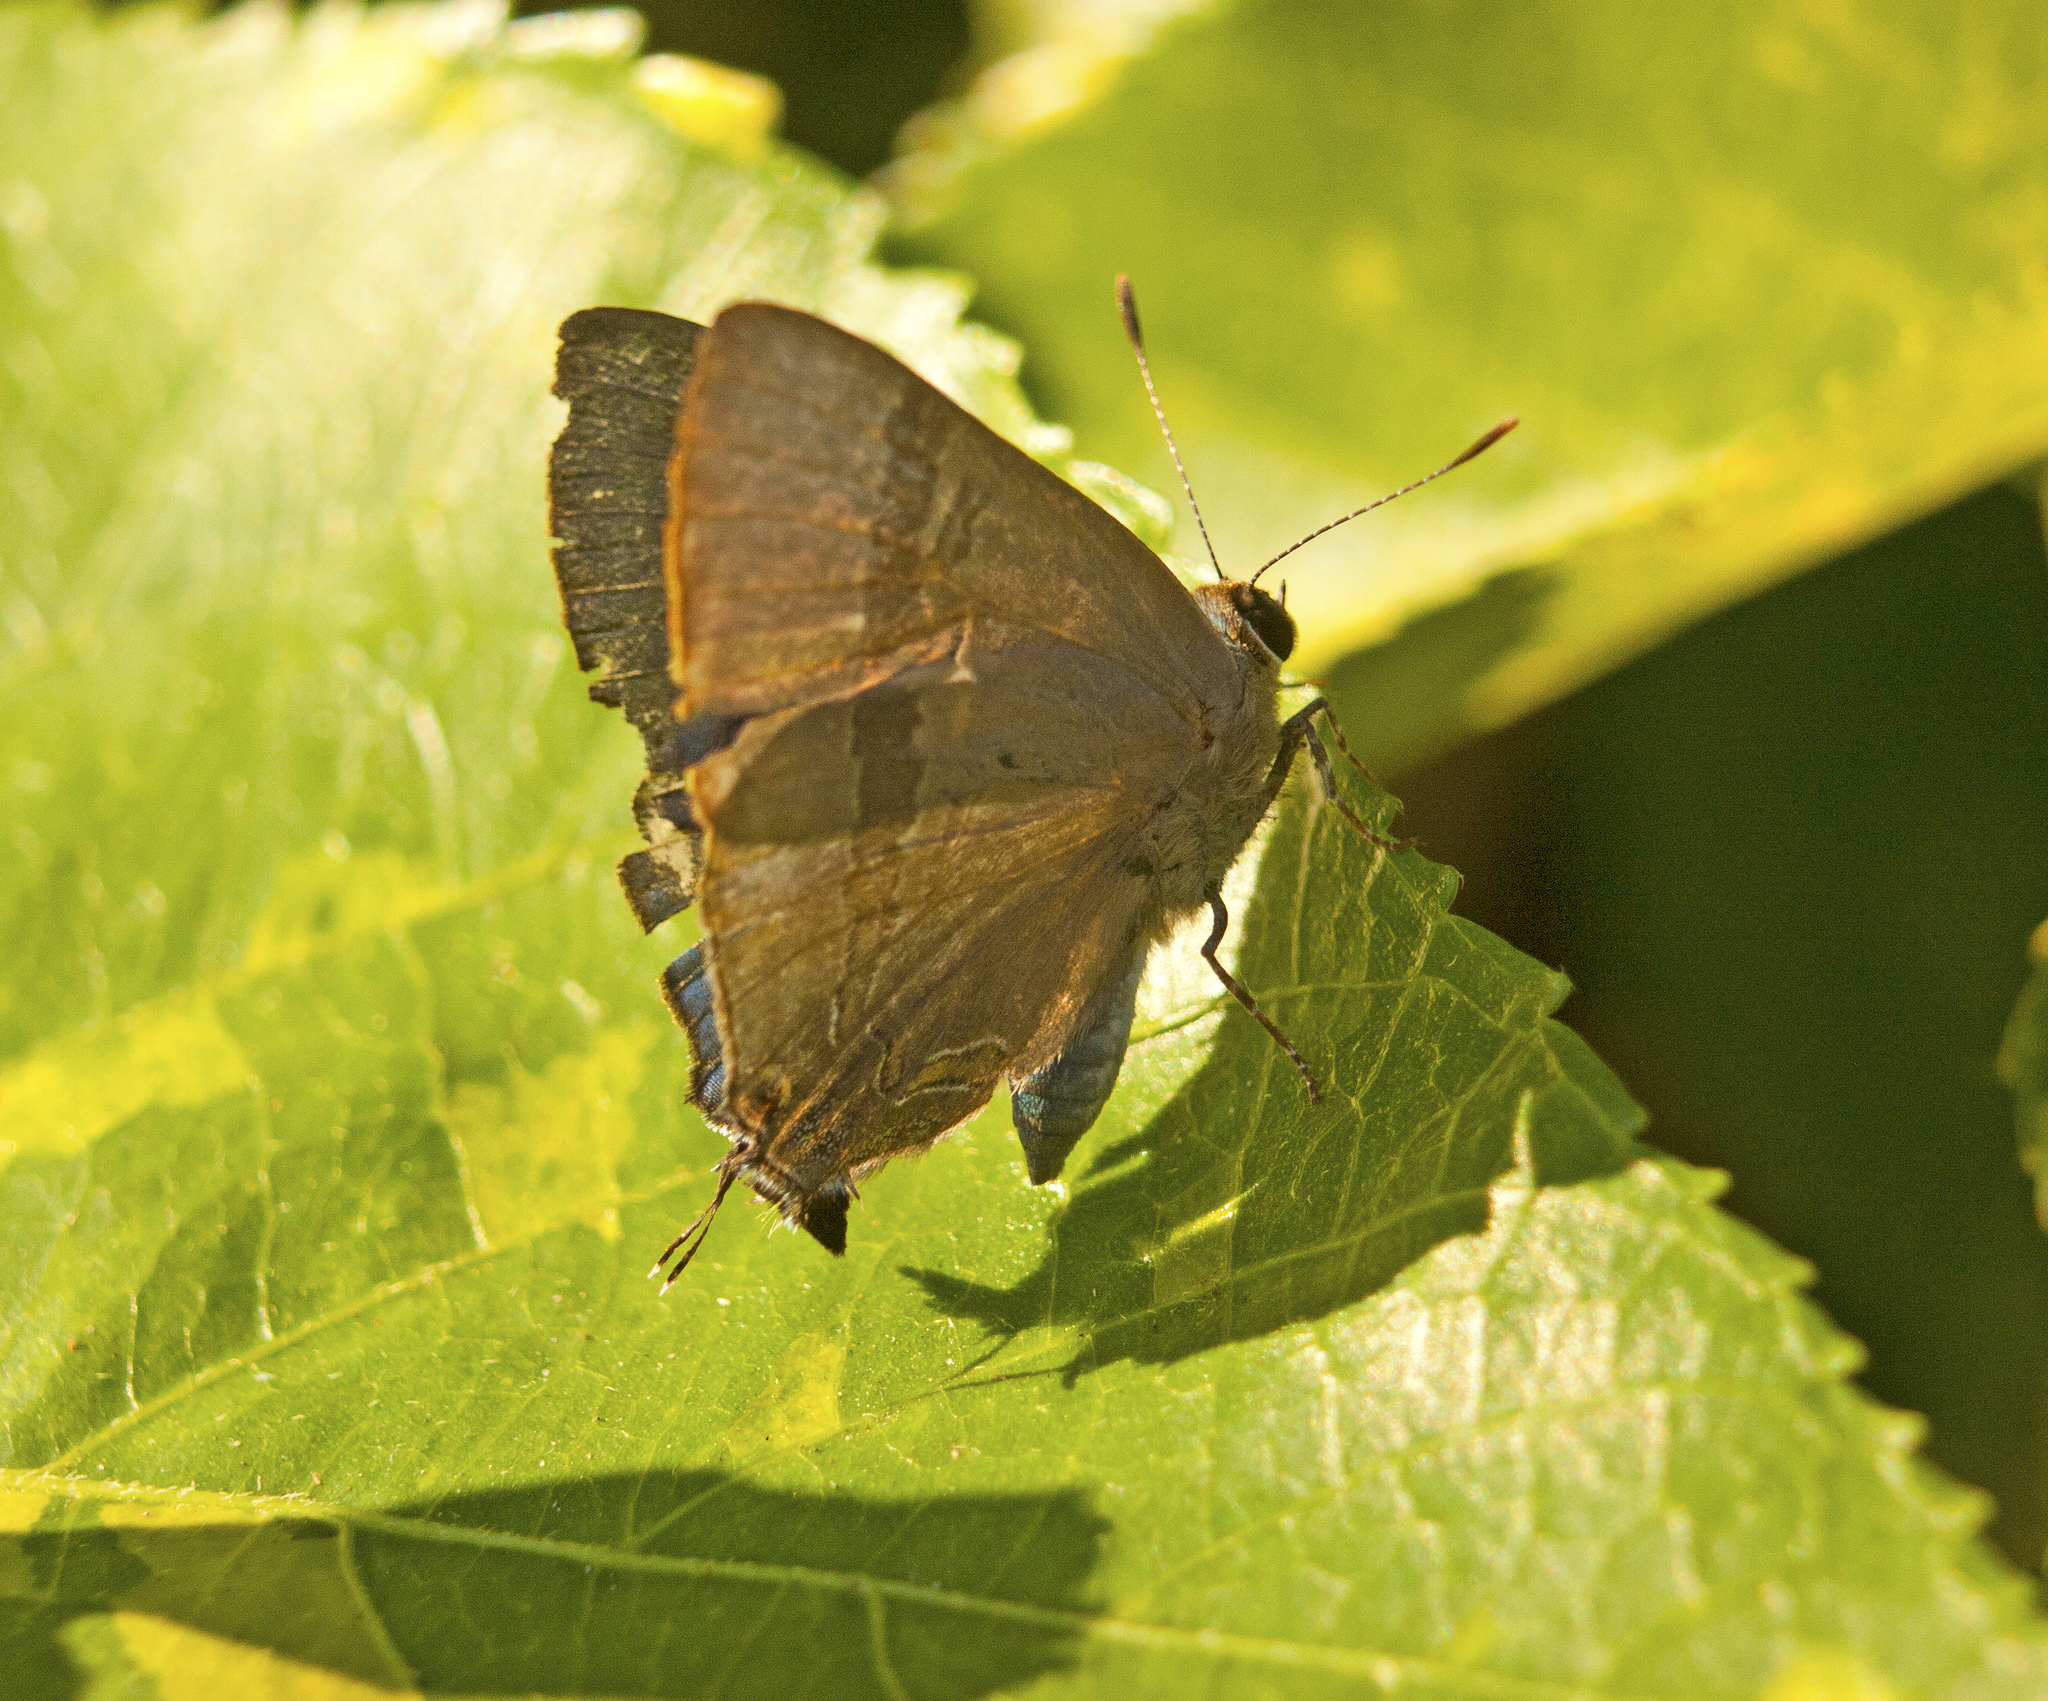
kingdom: Animalia
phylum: Arthropoda
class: Insecta
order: Lepidoptera
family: Lycaenidae
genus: Rapala
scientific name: Rapala varuna
